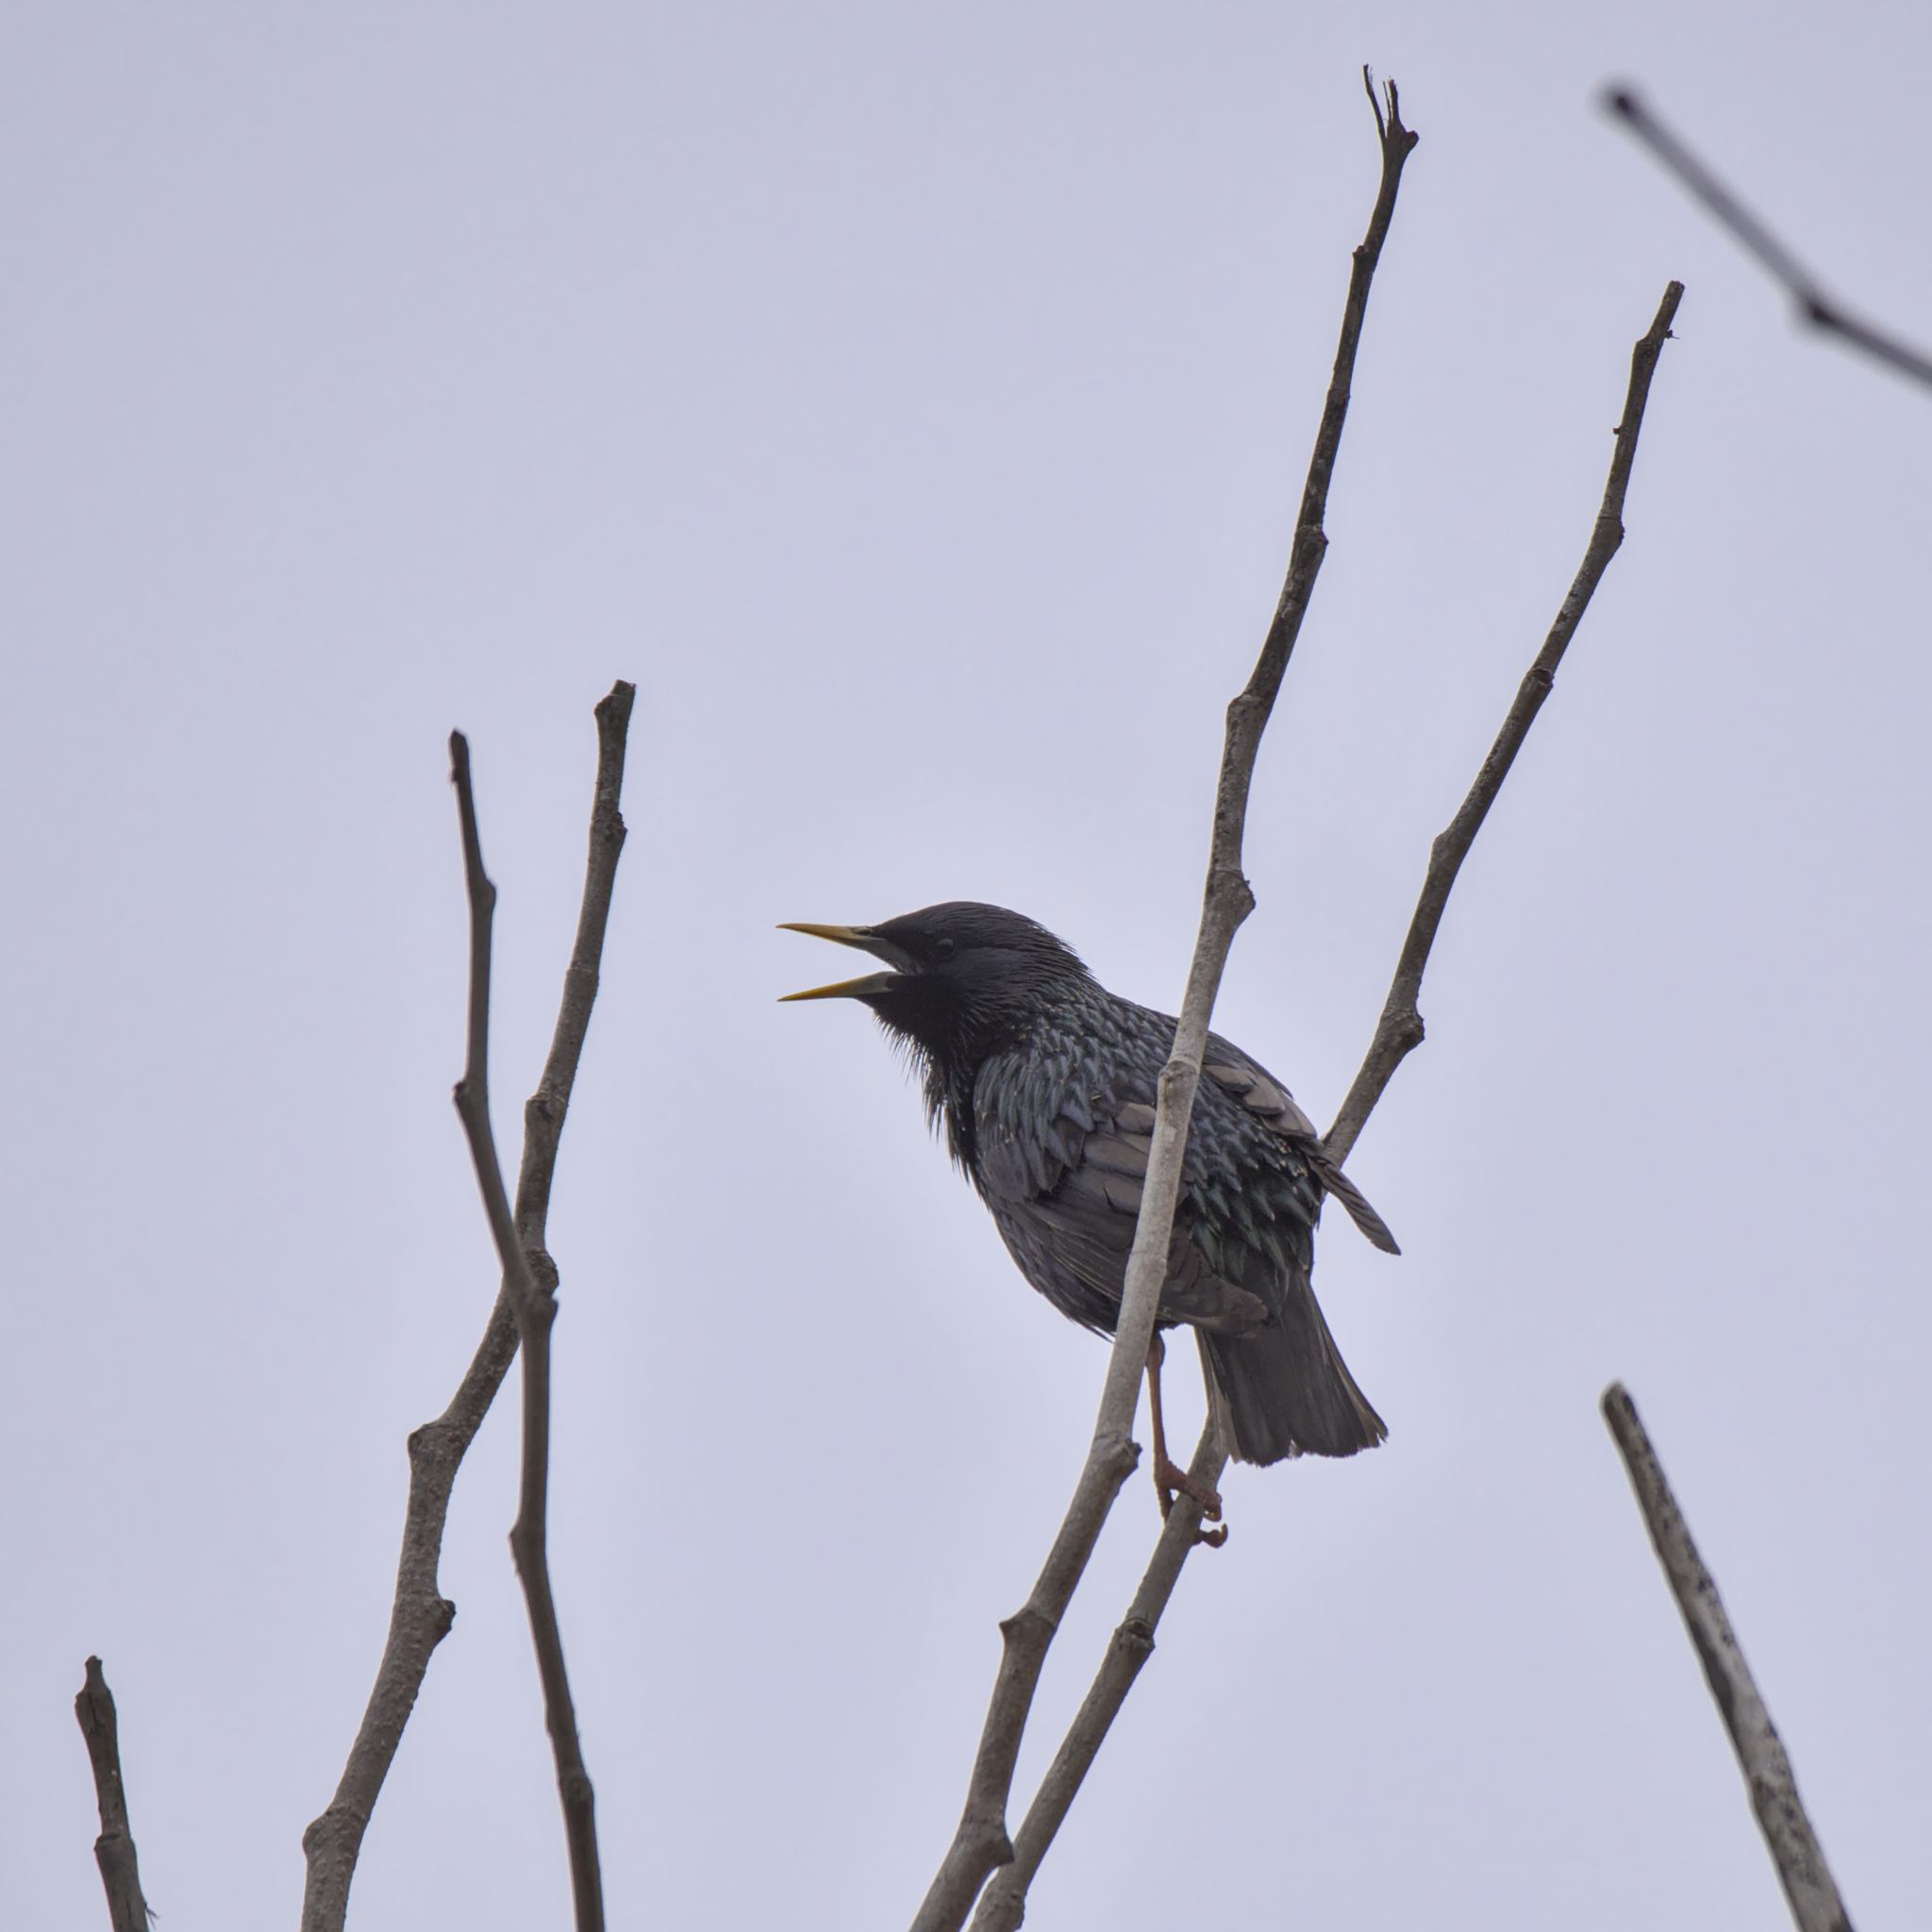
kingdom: Animalia
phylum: Chordata
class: Aves
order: Passeriformes
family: Sturnidae
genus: Sturnus
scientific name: Sturnus vulgaris
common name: Common starling
